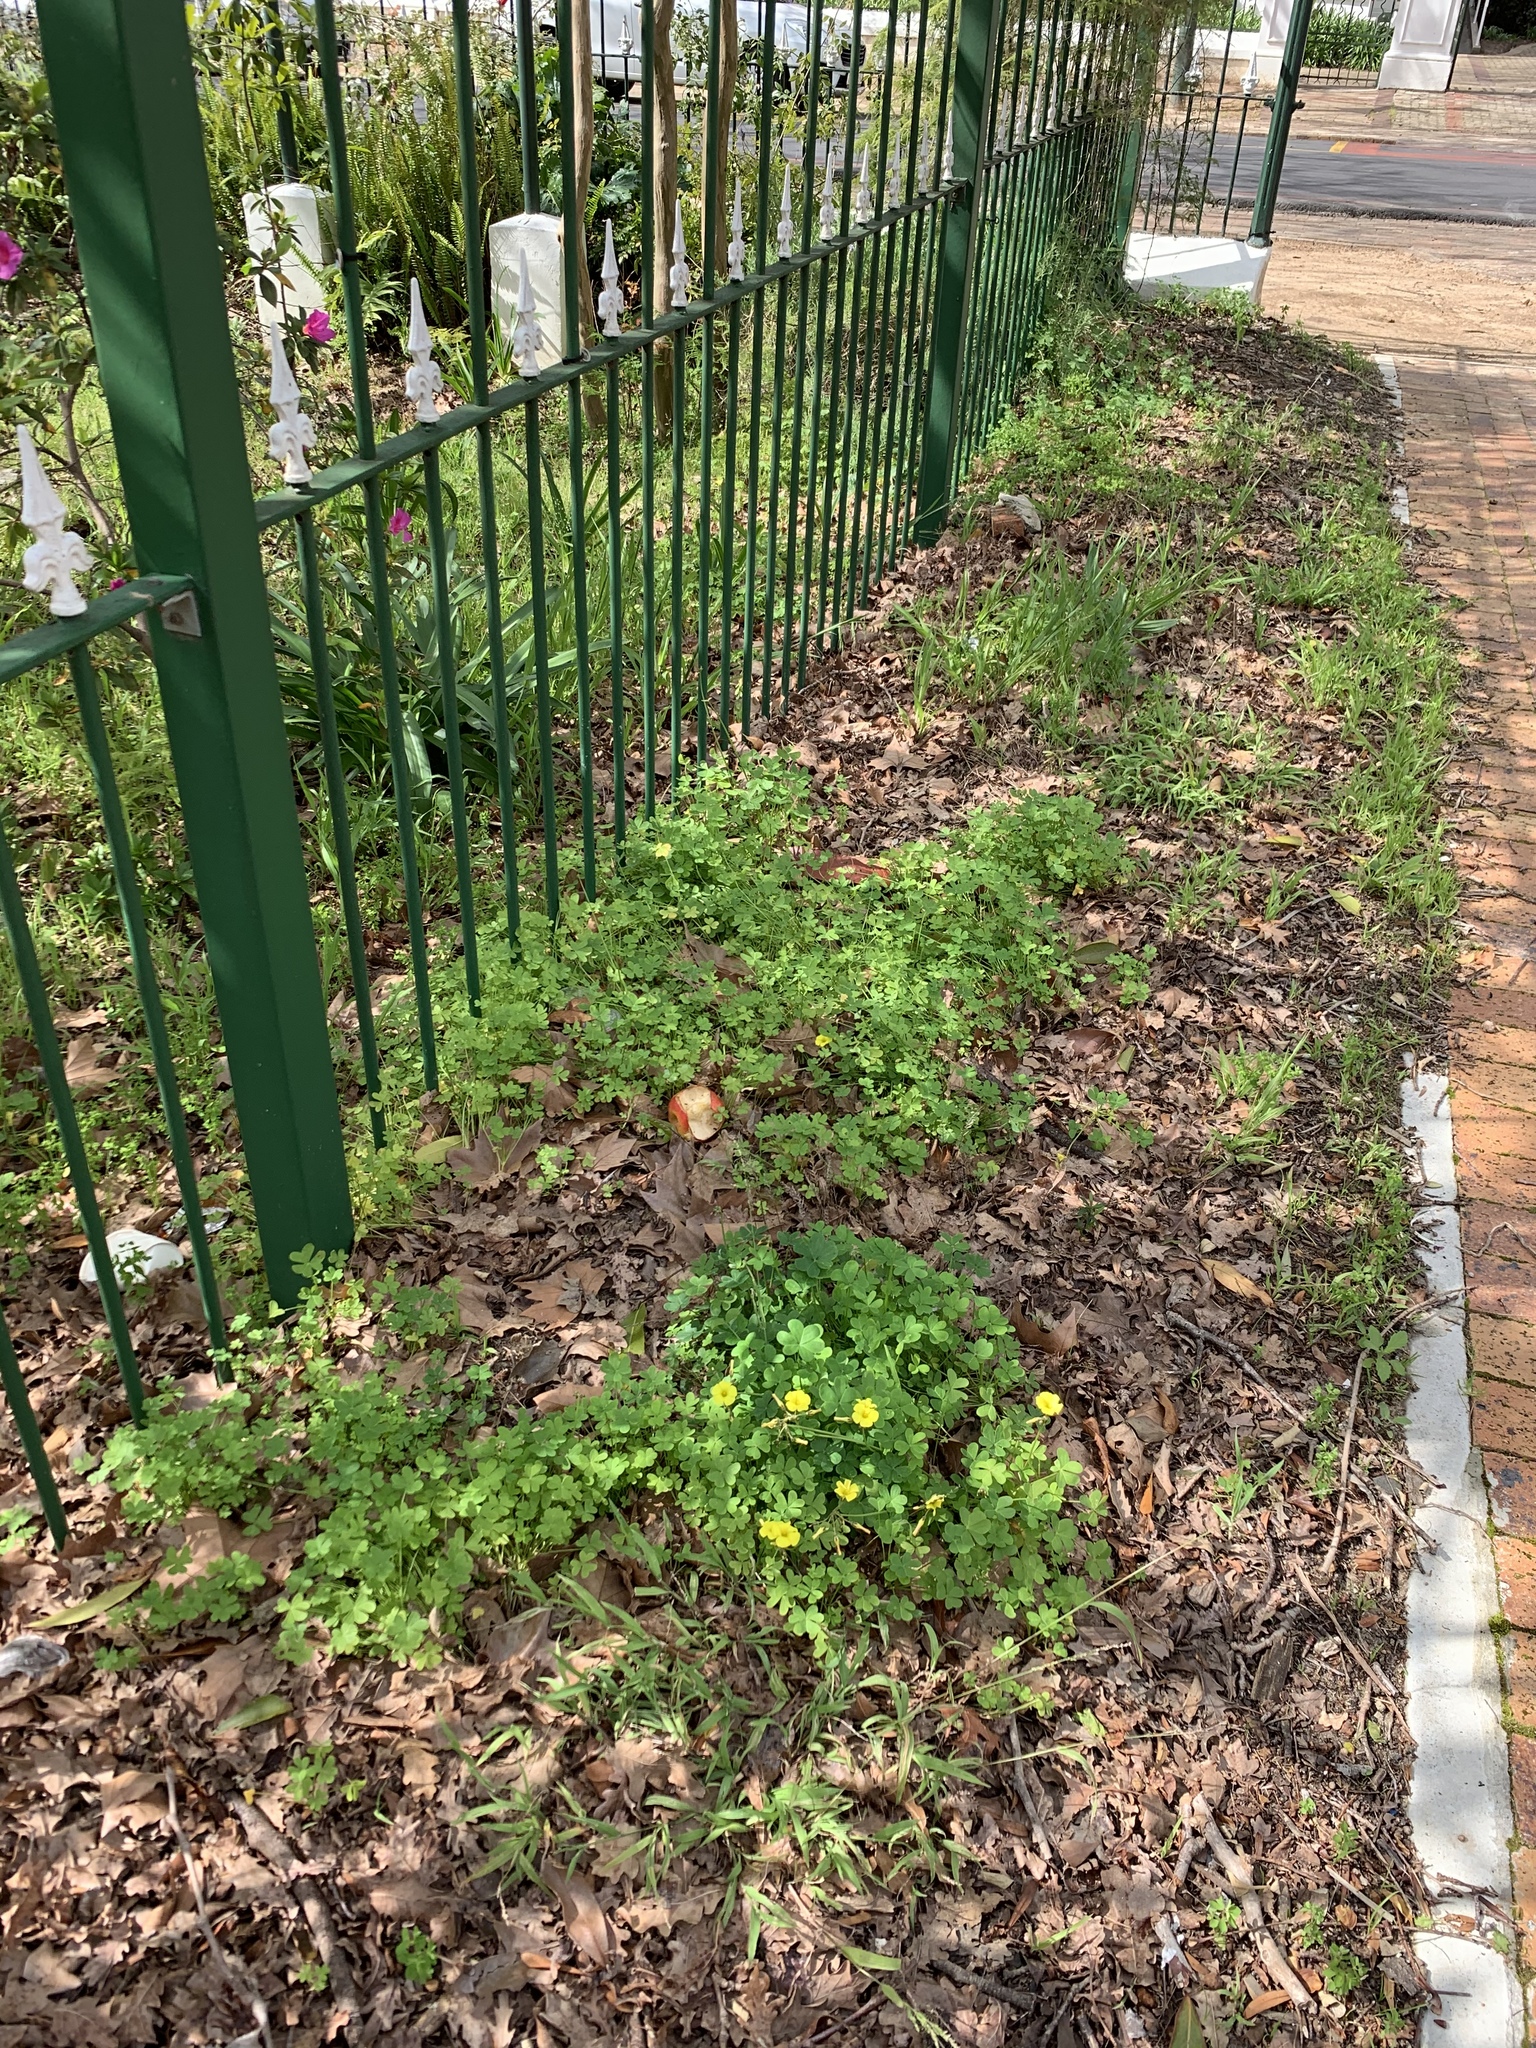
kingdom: Plantae
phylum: Tracheophyta
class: Magnoliopsida
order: Oxalidales
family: Oxalidaceae
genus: Oxalis
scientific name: Oxalis pes-caprae
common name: Bermuda-buttercup
